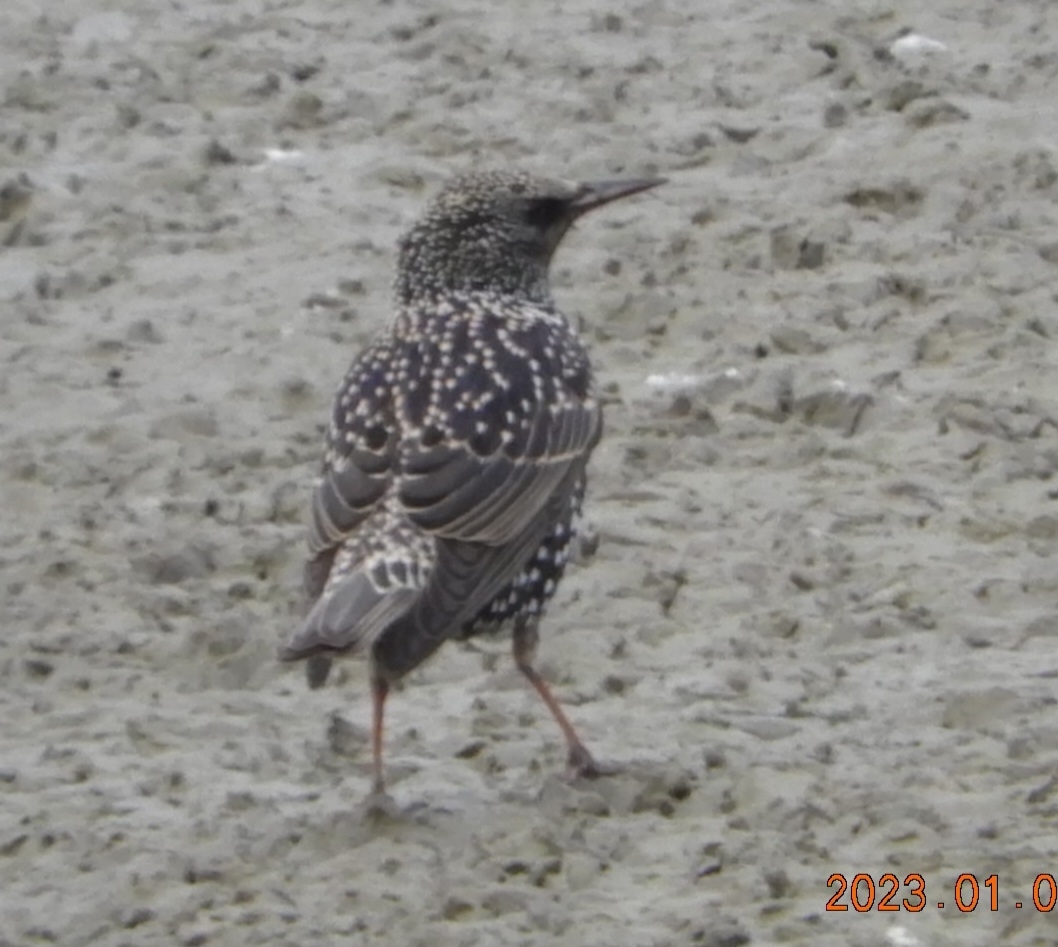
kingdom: Animalia
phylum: Chordata
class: Aves
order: Passeriformes
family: Sturnidae
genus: Sturnus
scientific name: Sturnus vulgaris
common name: Common starling
